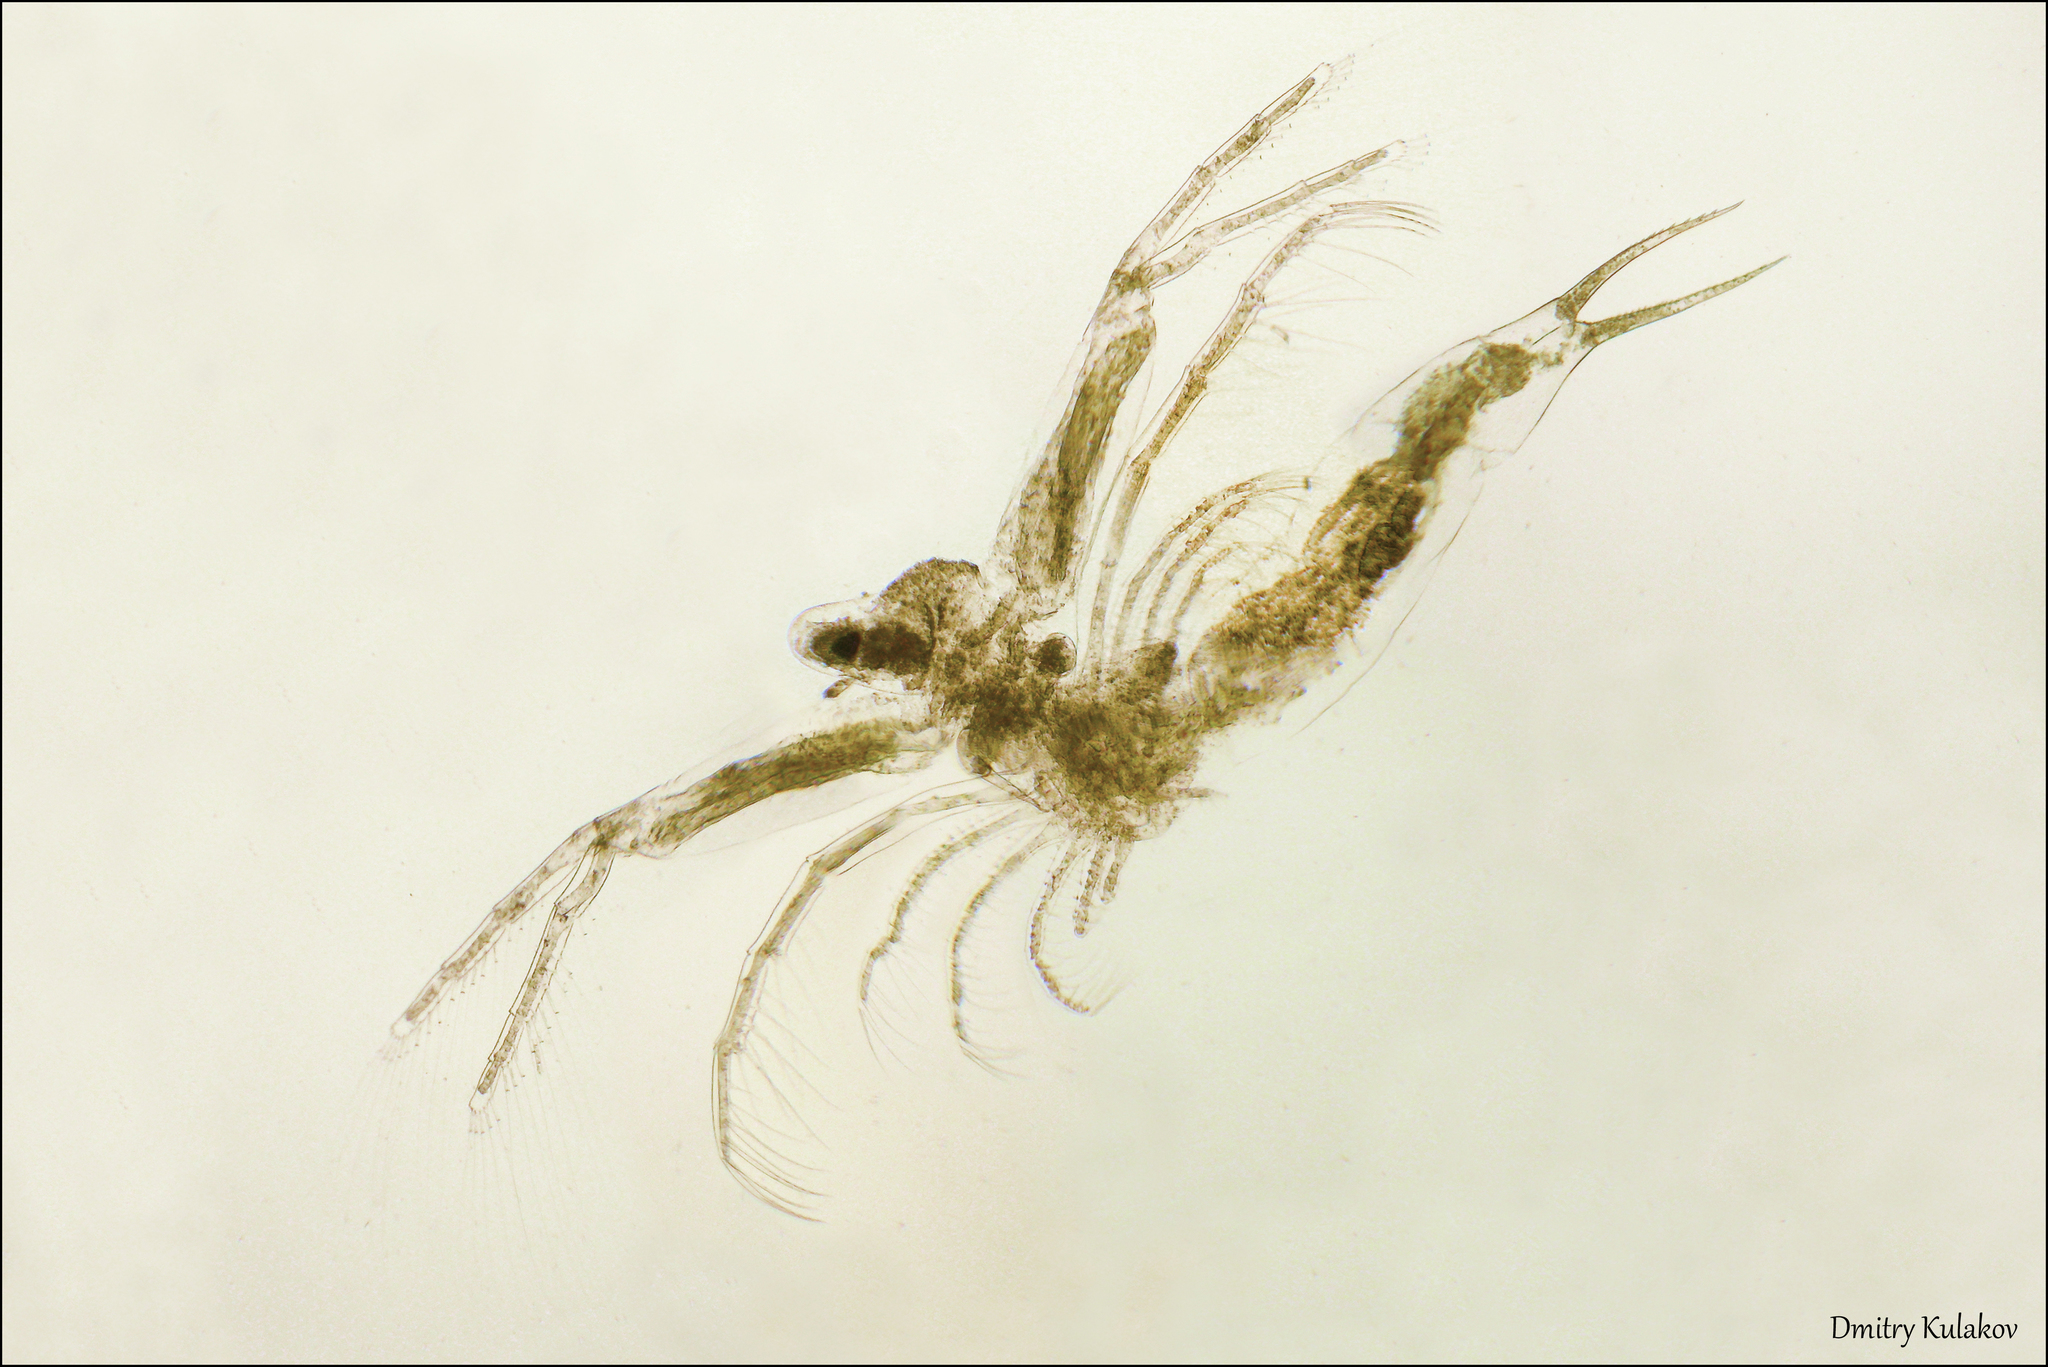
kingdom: Animalia
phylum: Arthropoda
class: Branchiopoda
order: Diplostraca
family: Leptodoridae
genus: Leptodora
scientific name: Leptodora kindti
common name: Glass waterflea
